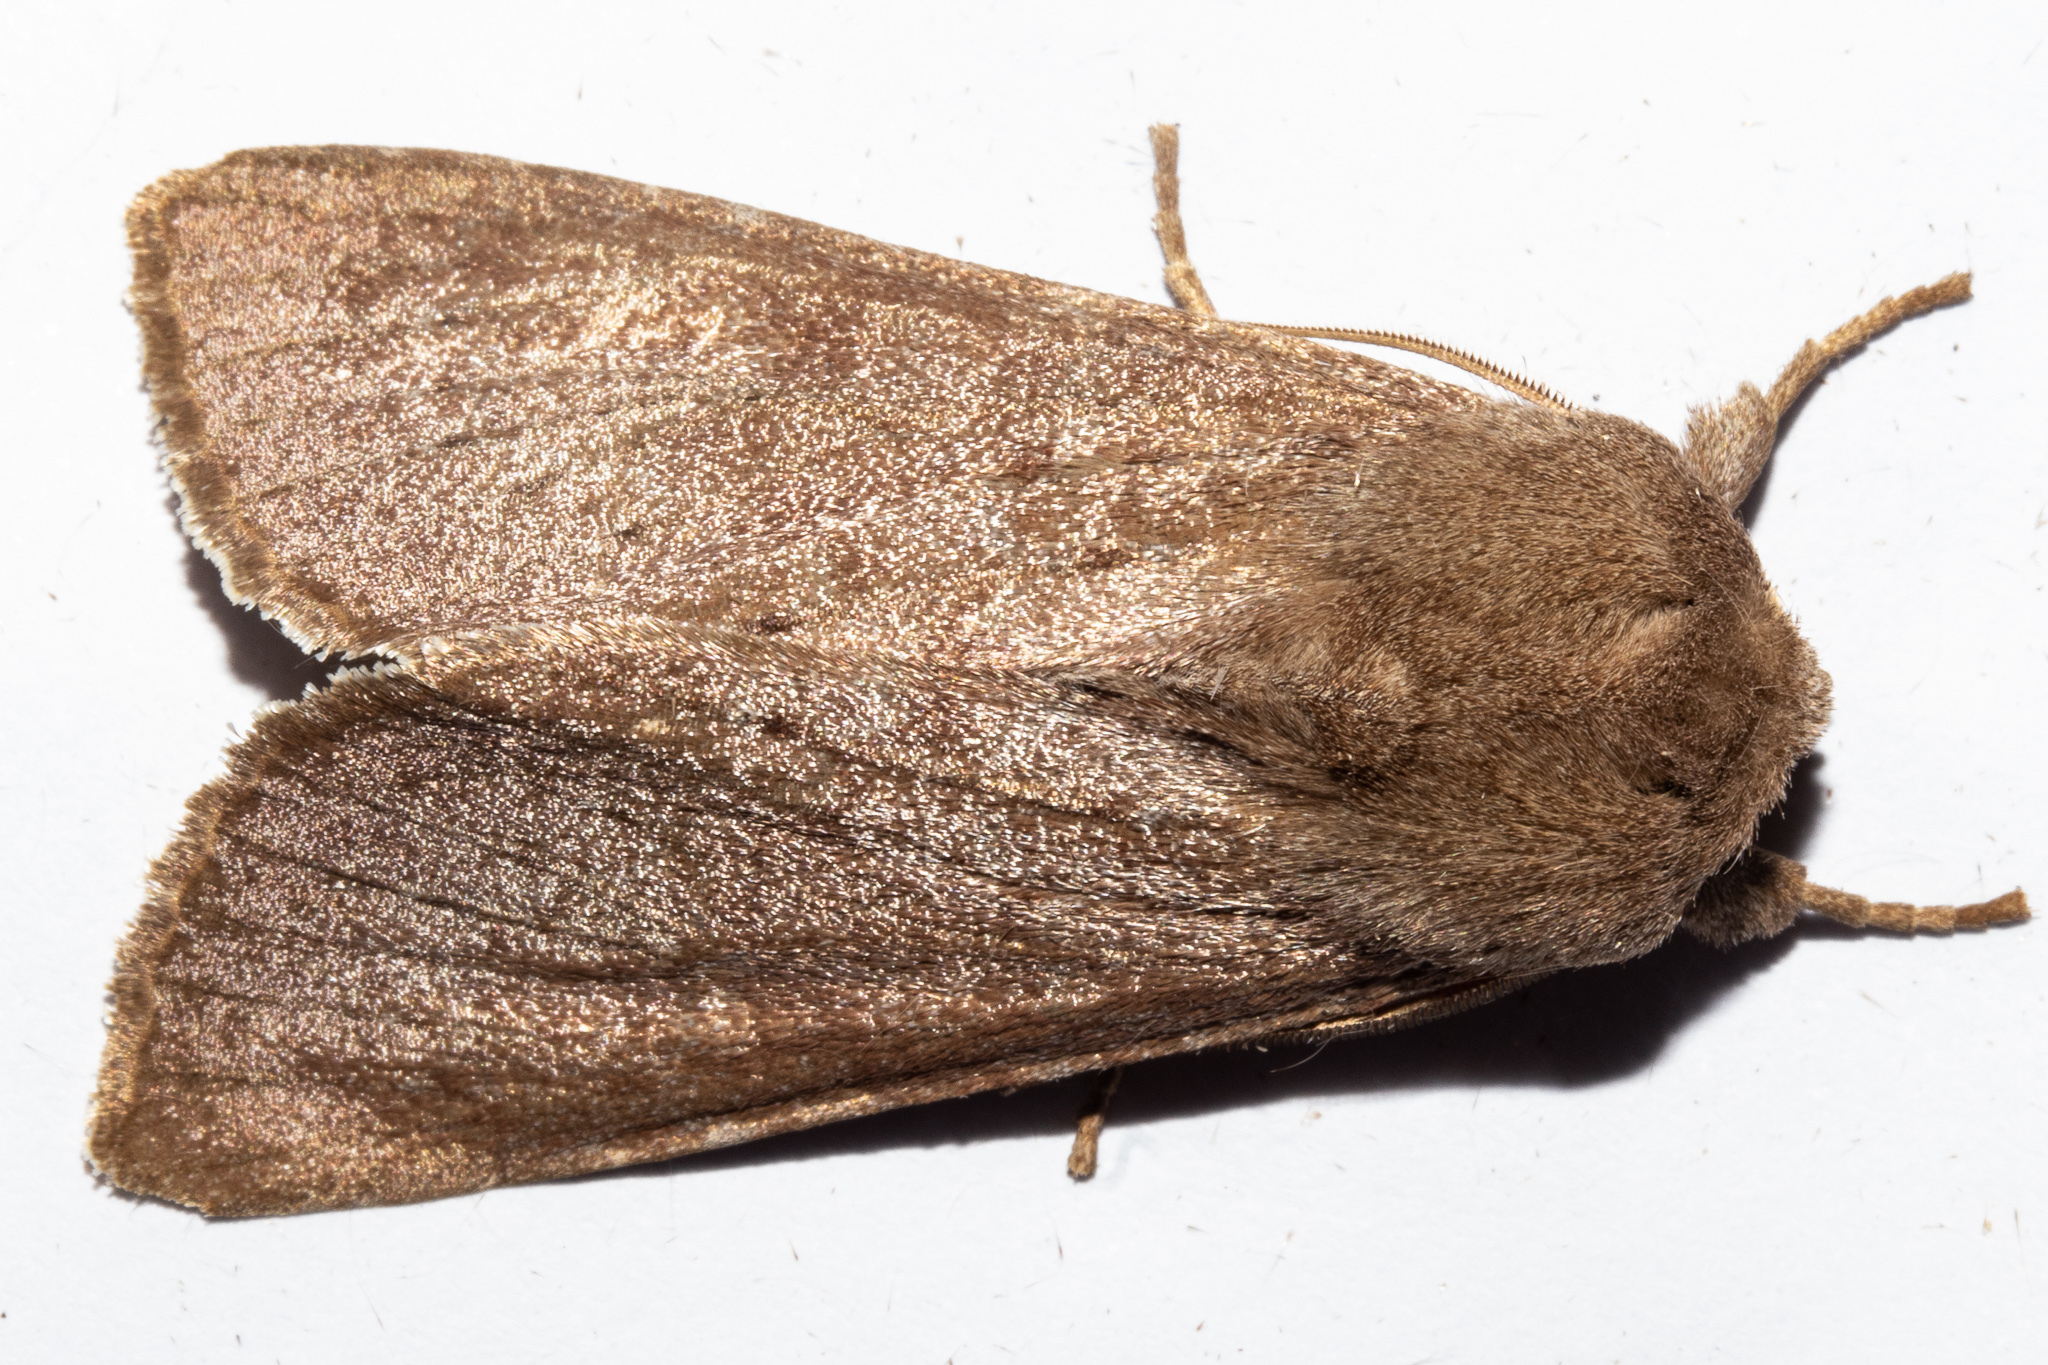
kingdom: Animalia
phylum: Arthropoda
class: Insecta
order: Lepidoptera
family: Noctuidae
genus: Ichneutica
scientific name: Ichneutica nullifera
